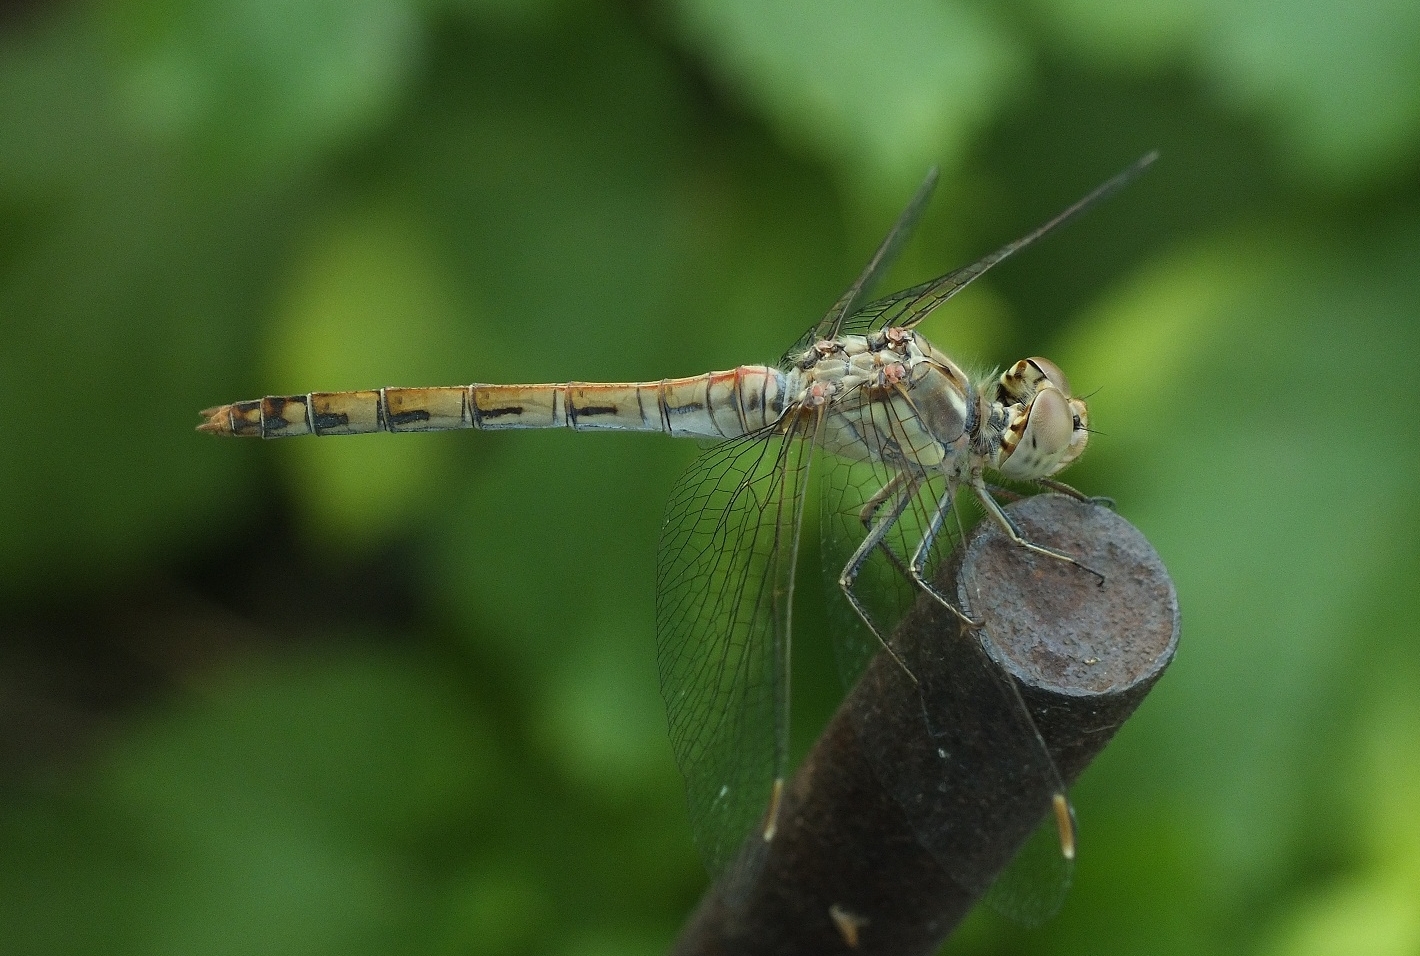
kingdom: Animalia
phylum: Arthropoda
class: Insecta
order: Odonata
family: Libellulidae
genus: Sympetrum
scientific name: Sympetrum striolatum
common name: Common darter
